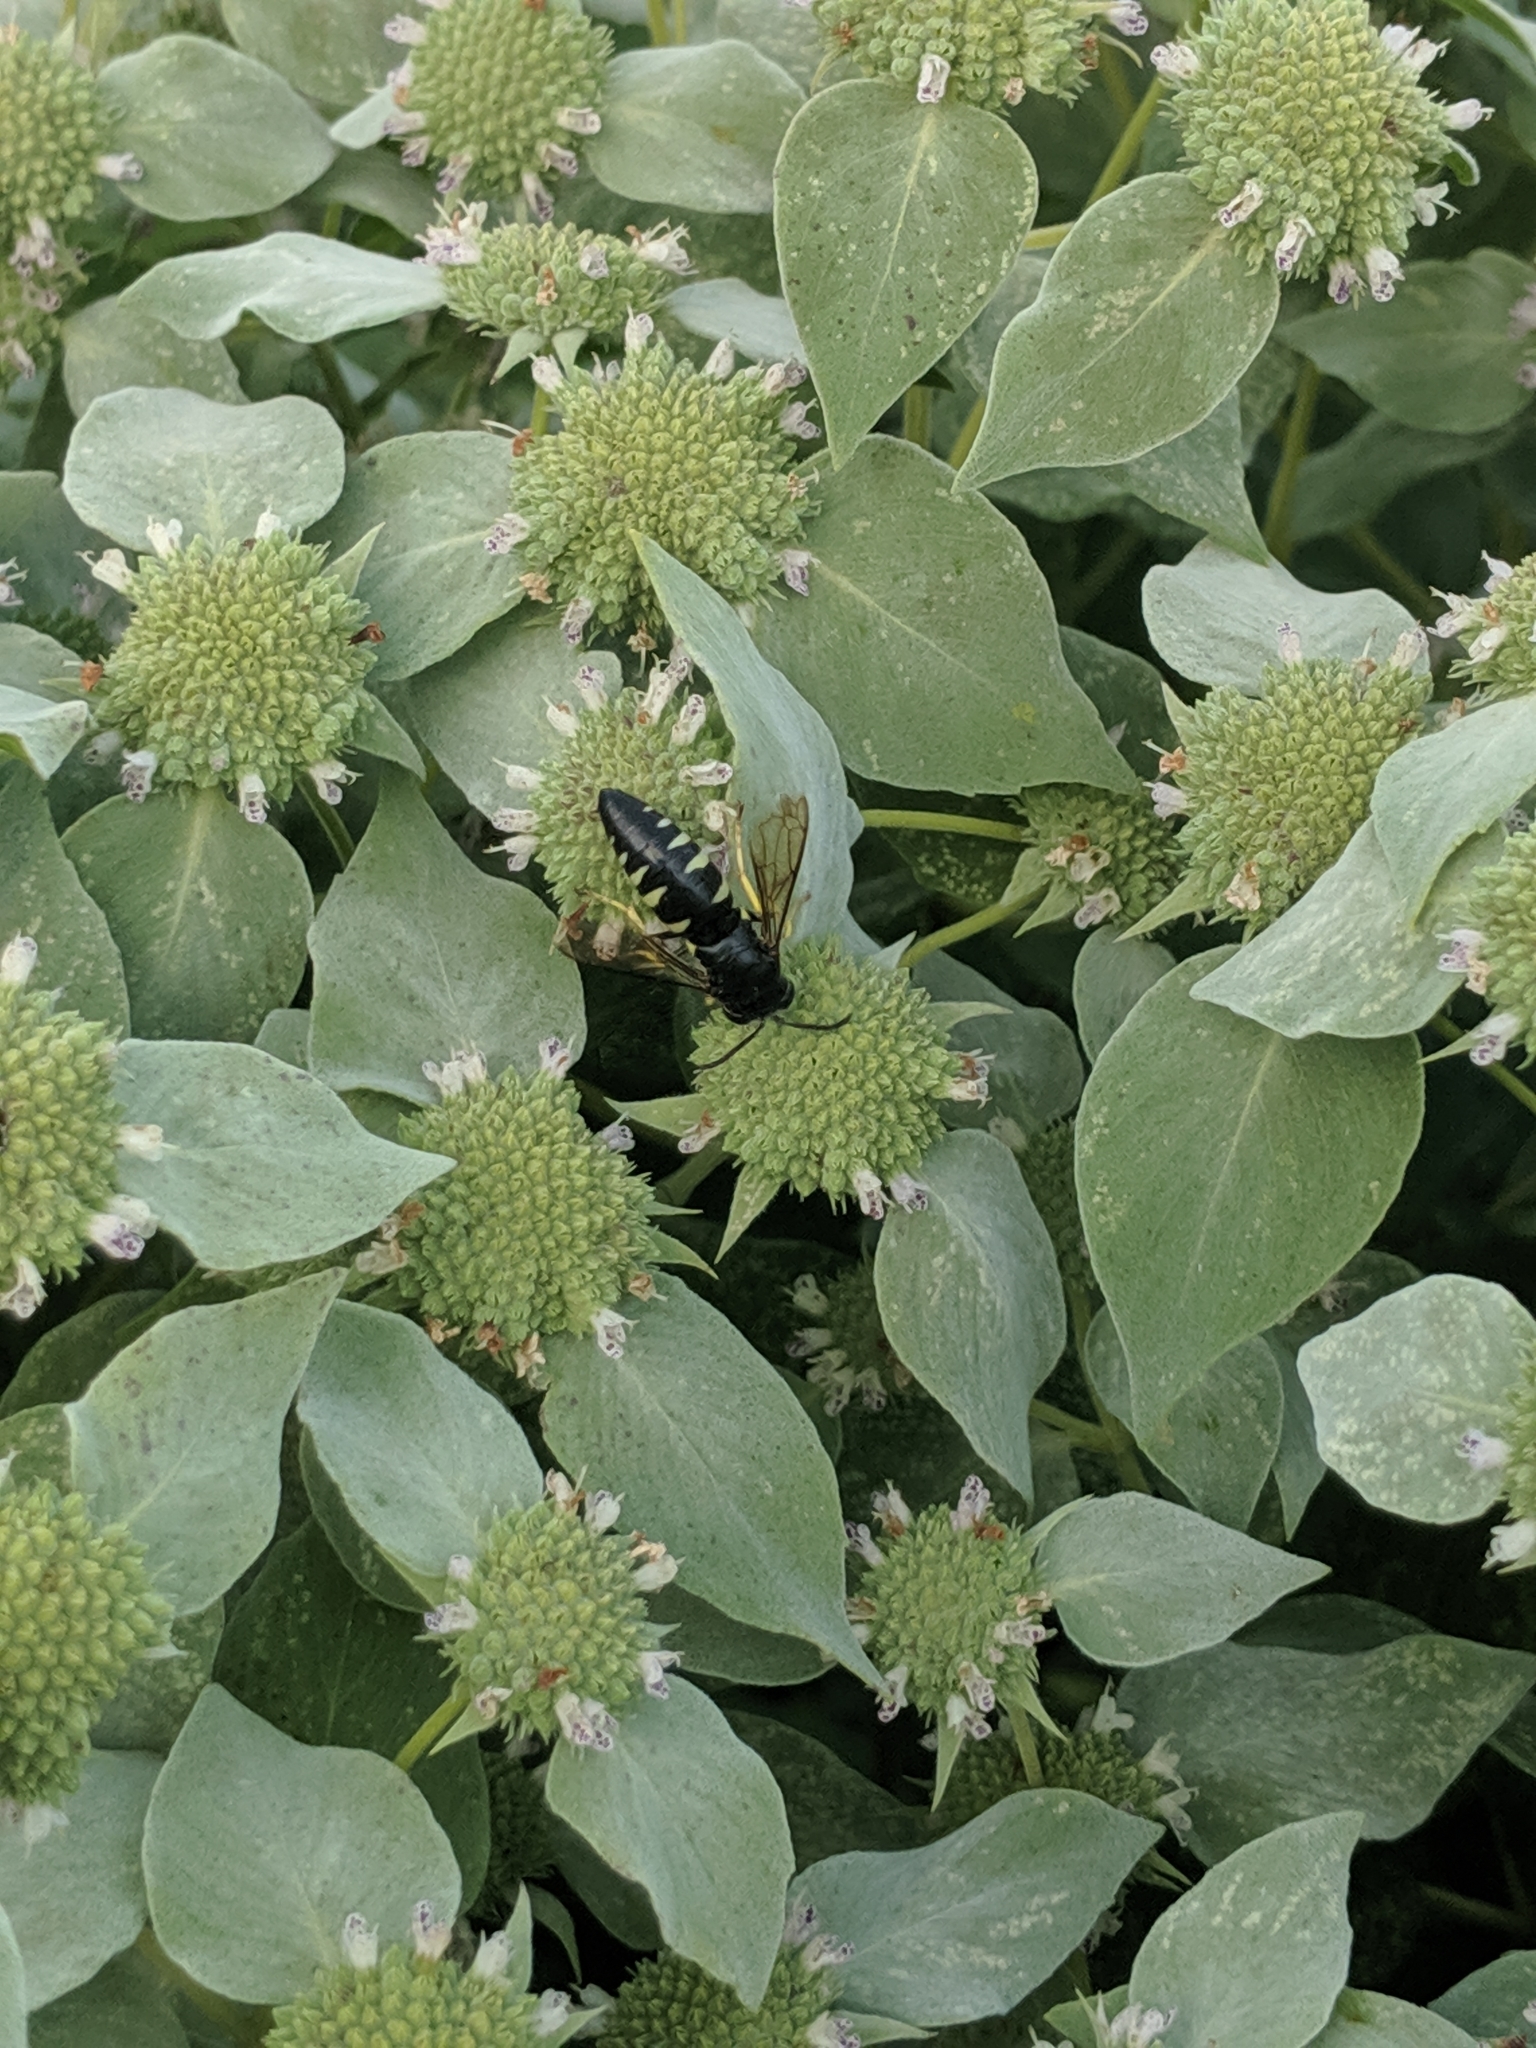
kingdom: Animalia
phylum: Arthropoda
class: Insecta
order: Hymenoptera
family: Crabronidae
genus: Bicyrtes
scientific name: Bicyrtes quadrifasciatus
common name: Four-banded stink bug hunter wasp
